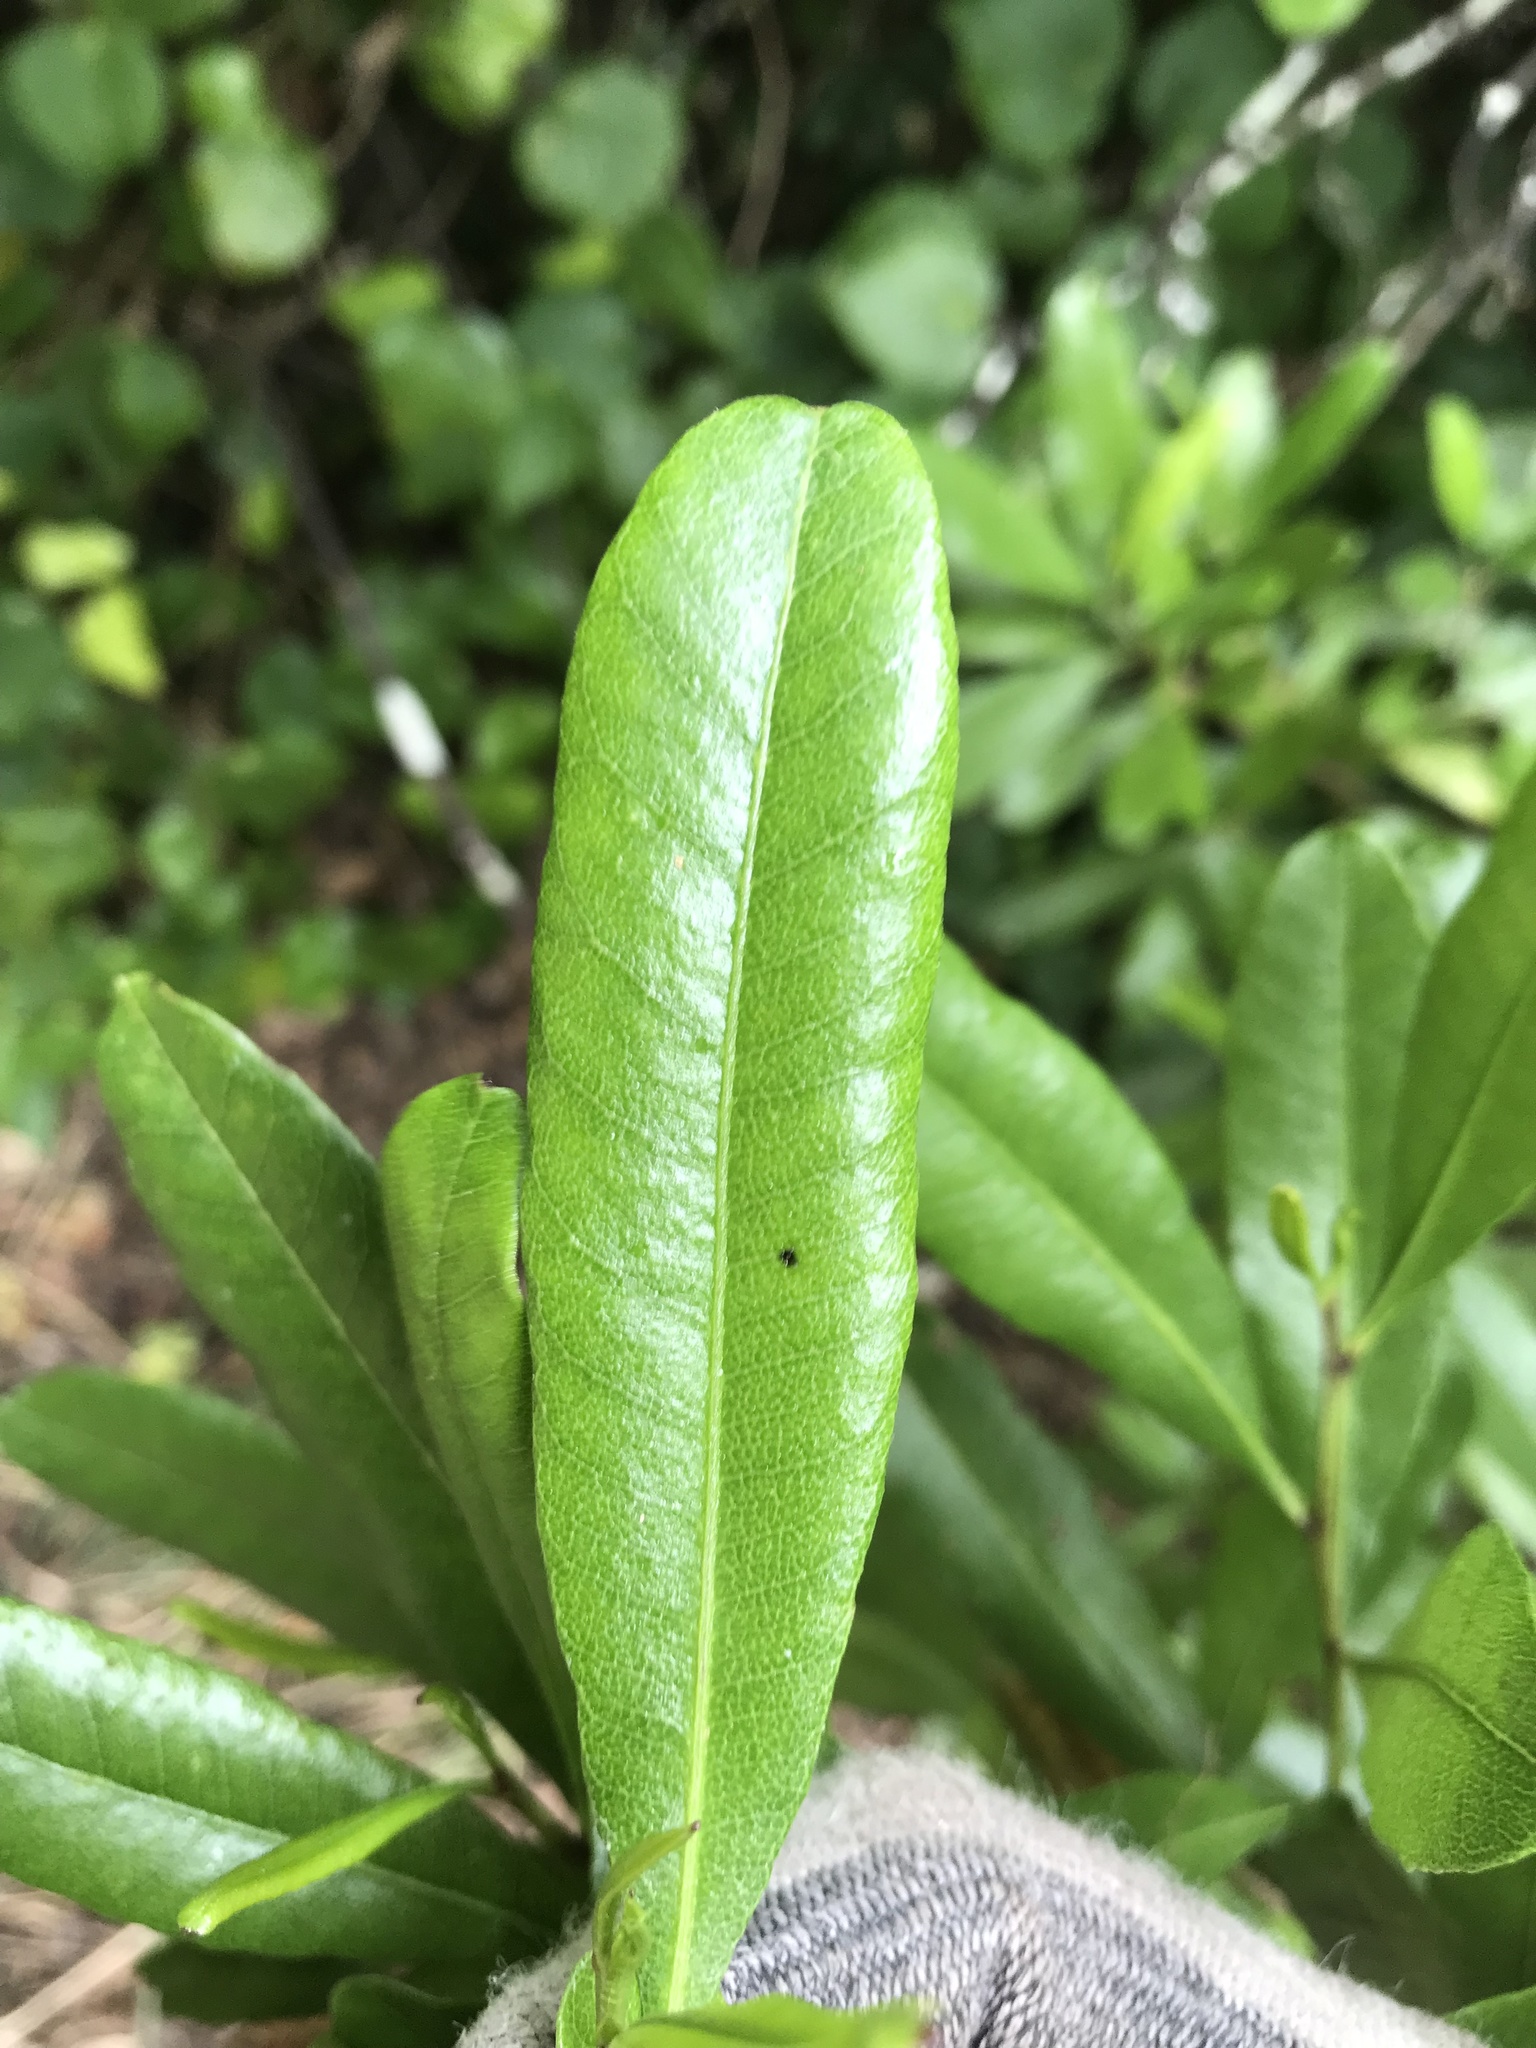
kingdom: Plantae
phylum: Tracheophyta
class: Magnoliopsida
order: Sapindales
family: Sapindaceae
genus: Dodonaea
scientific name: Dodonaea viscosa
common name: Hopbush
